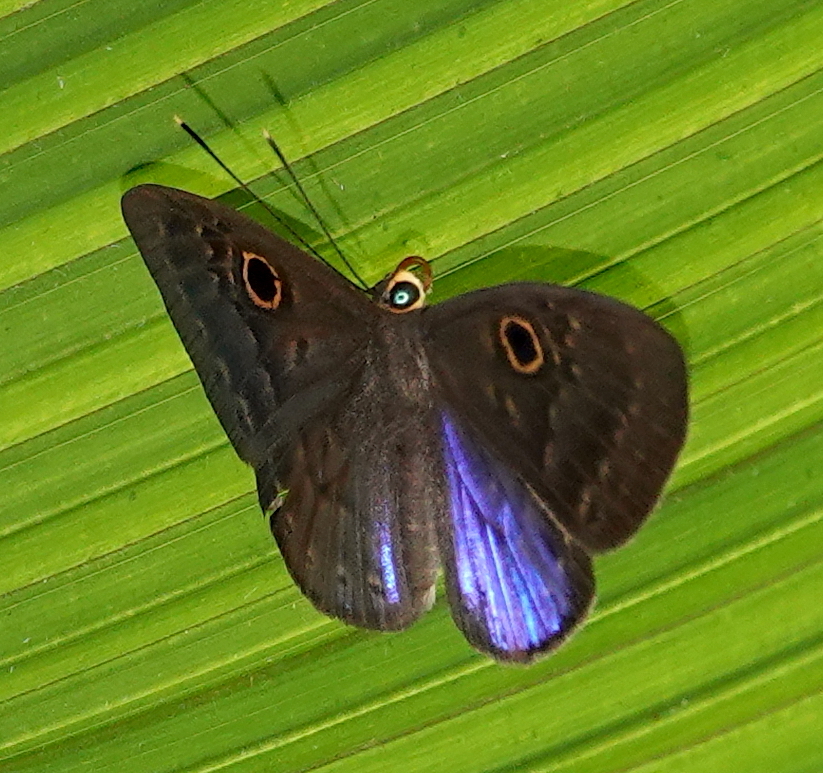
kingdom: Animalia
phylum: Cnidaria
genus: Eurybia
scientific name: Eurybia lycisca
